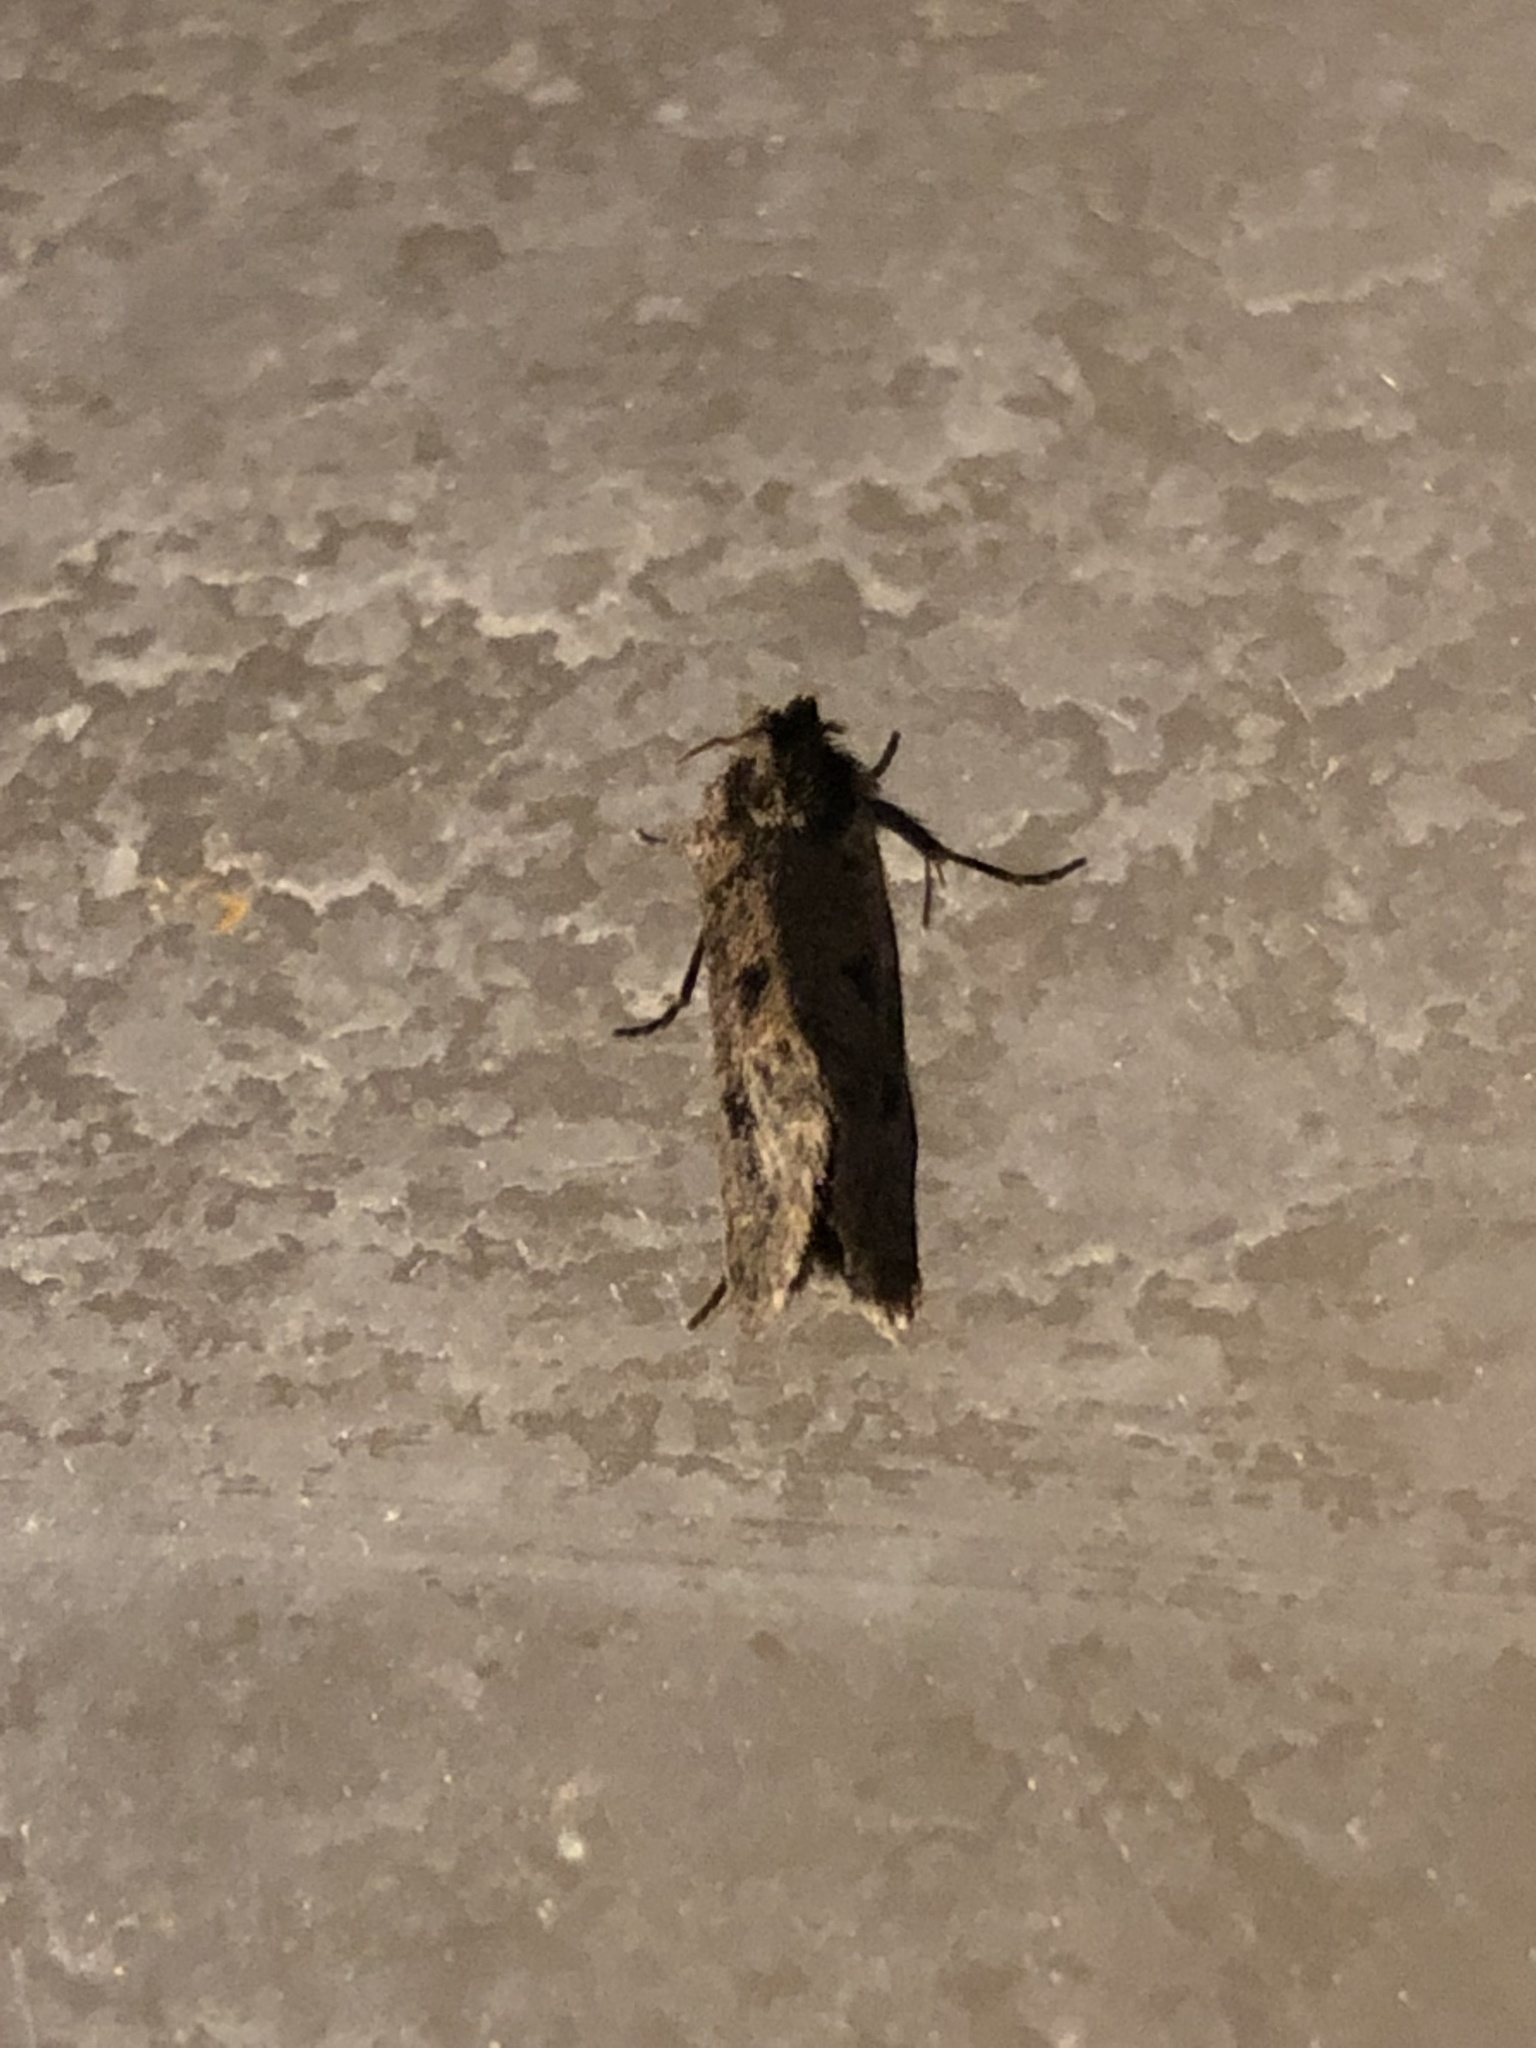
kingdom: Animalia
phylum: Arthropoda
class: Insecta
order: Lepidoptera
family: Tineidae
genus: Acrolophus
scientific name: Acrolophus popeanella
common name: Clemens' grass tubeworm moth
